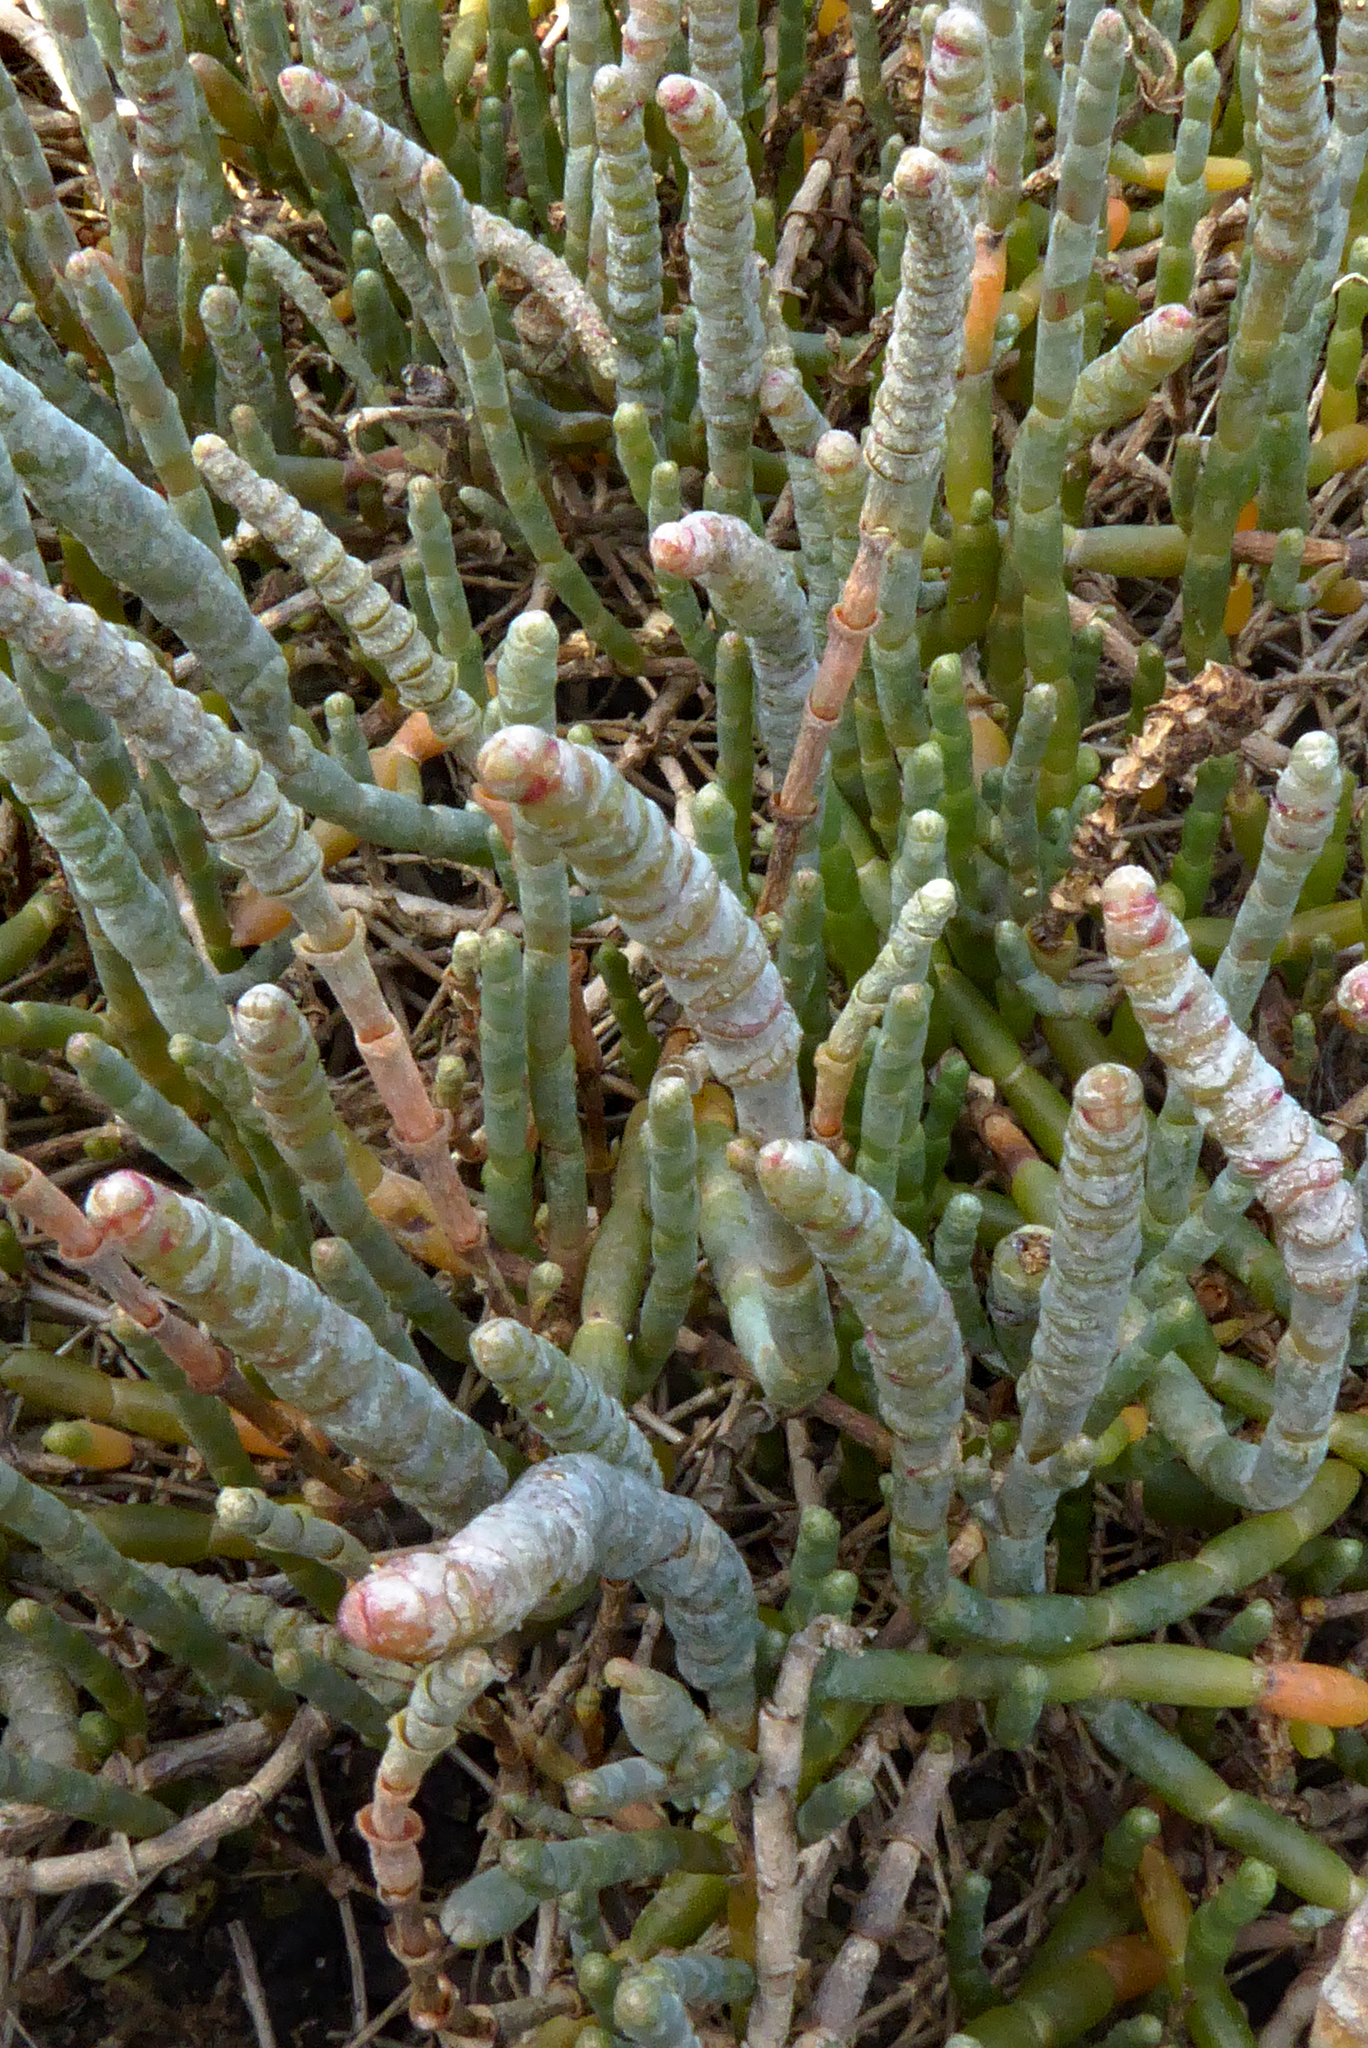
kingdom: Plantae
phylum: Tracheophyta
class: Magnoliopsida
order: Caryophyllales
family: Amaranthaceae
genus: Salicornia
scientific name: Salicornia quinqueflora
